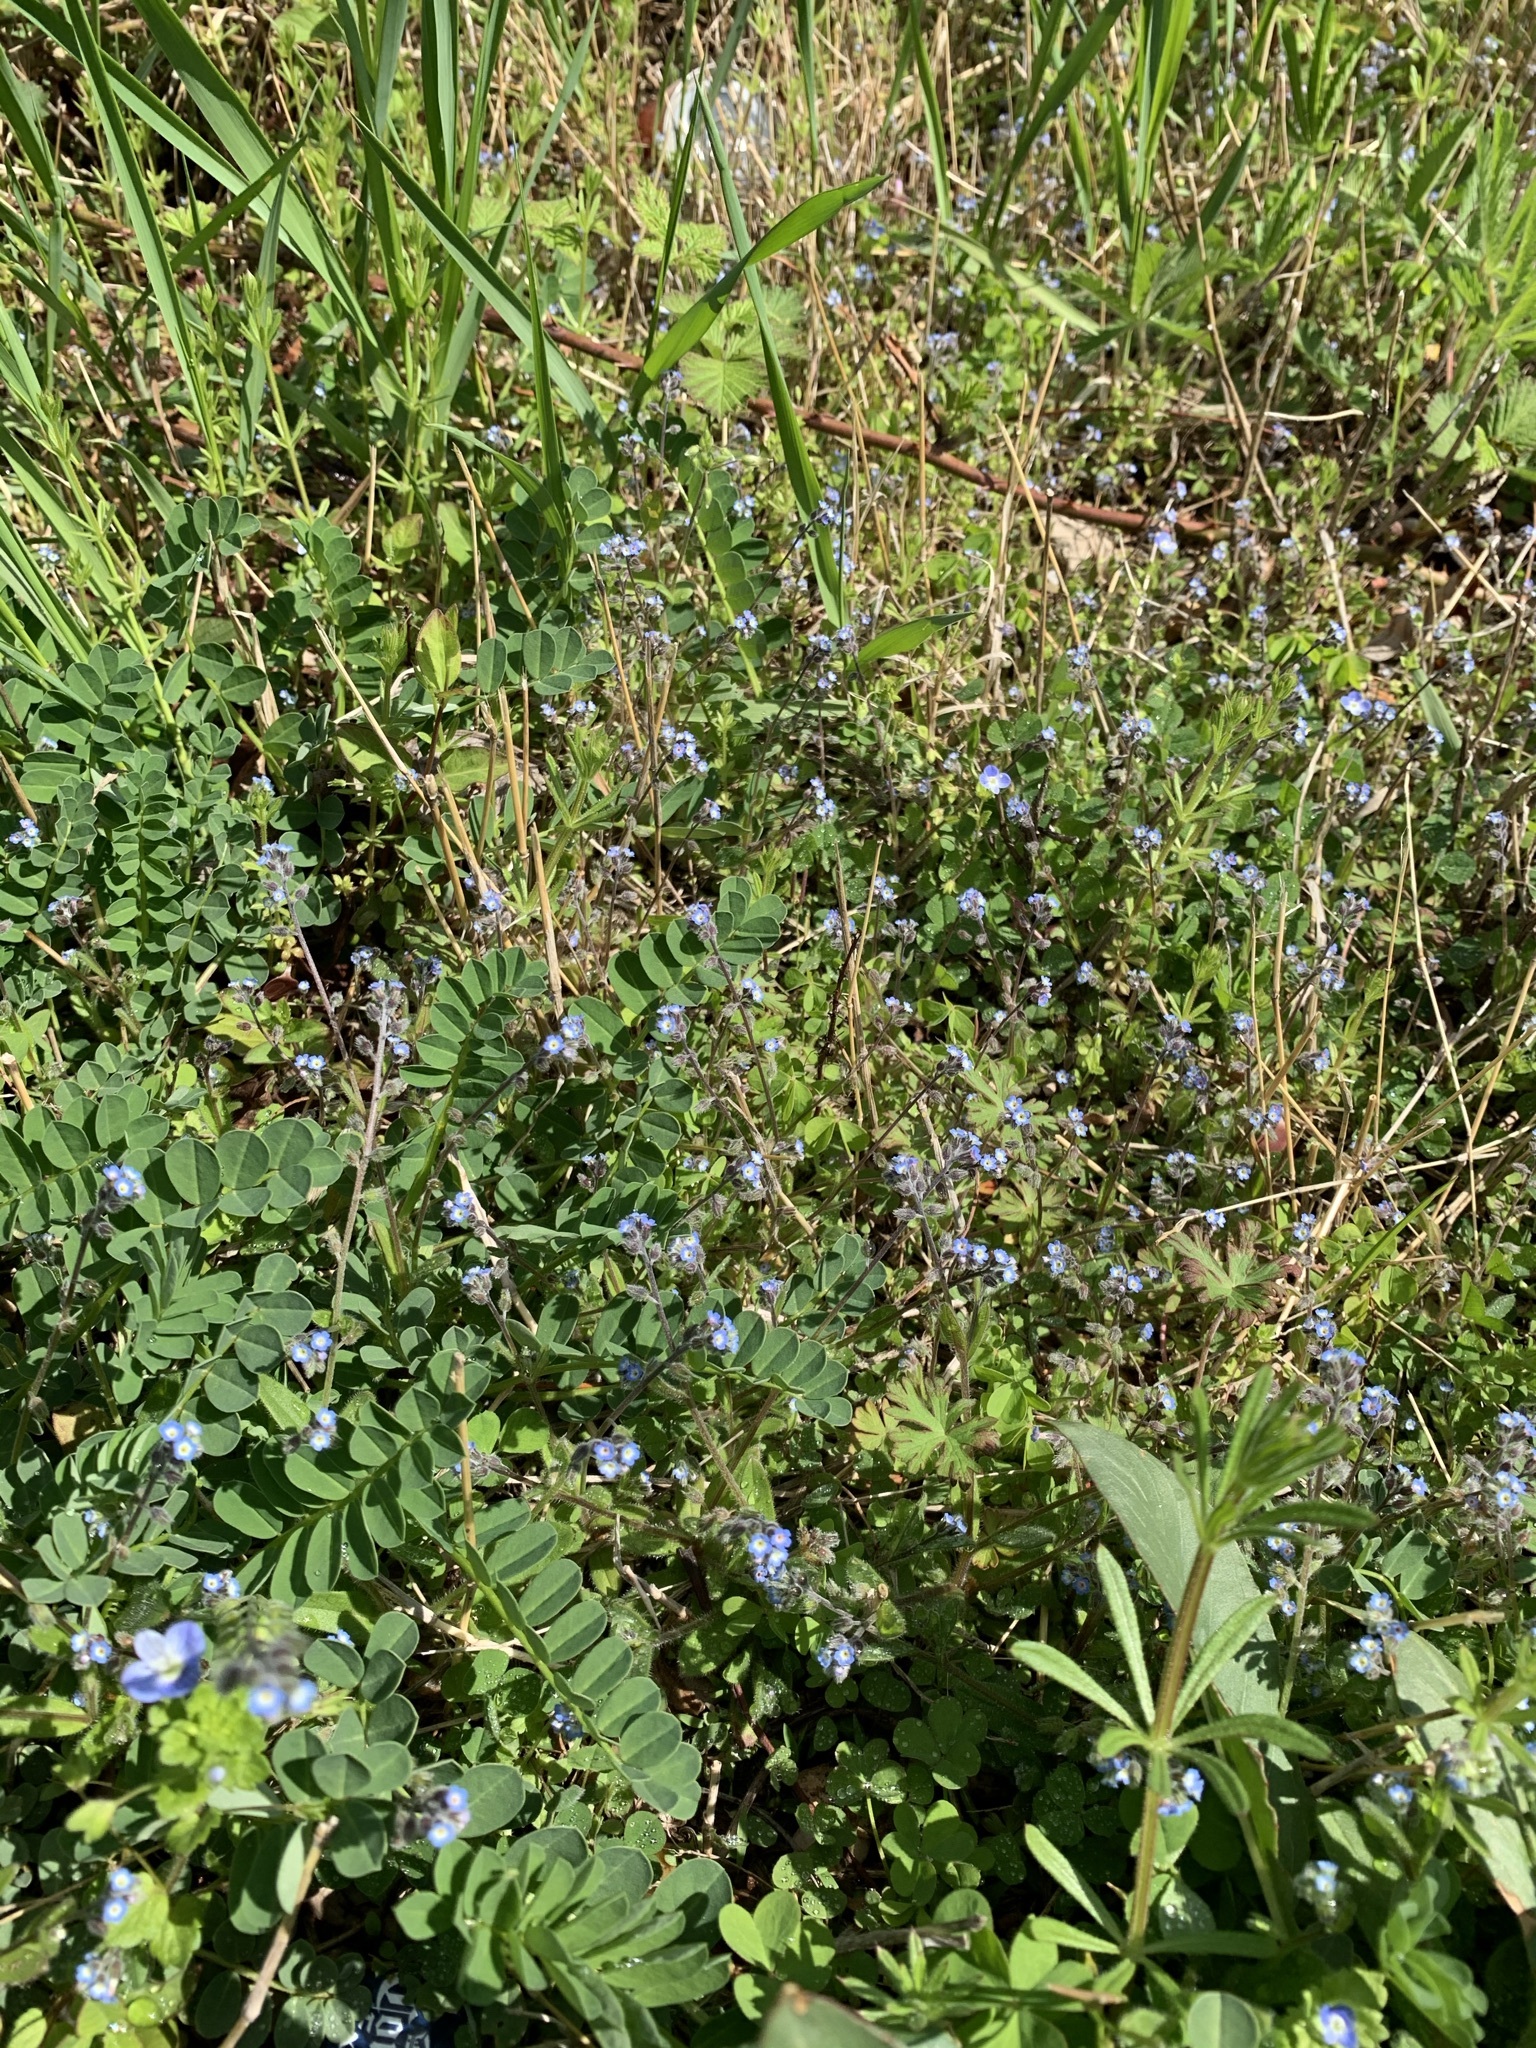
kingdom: Plantae
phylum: Tracheophyta
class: Magnoliopsida
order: Boraginales
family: Boraginaceae
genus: Myosotis
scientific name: Myosotis ramosissima
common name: Early forget-me-not
